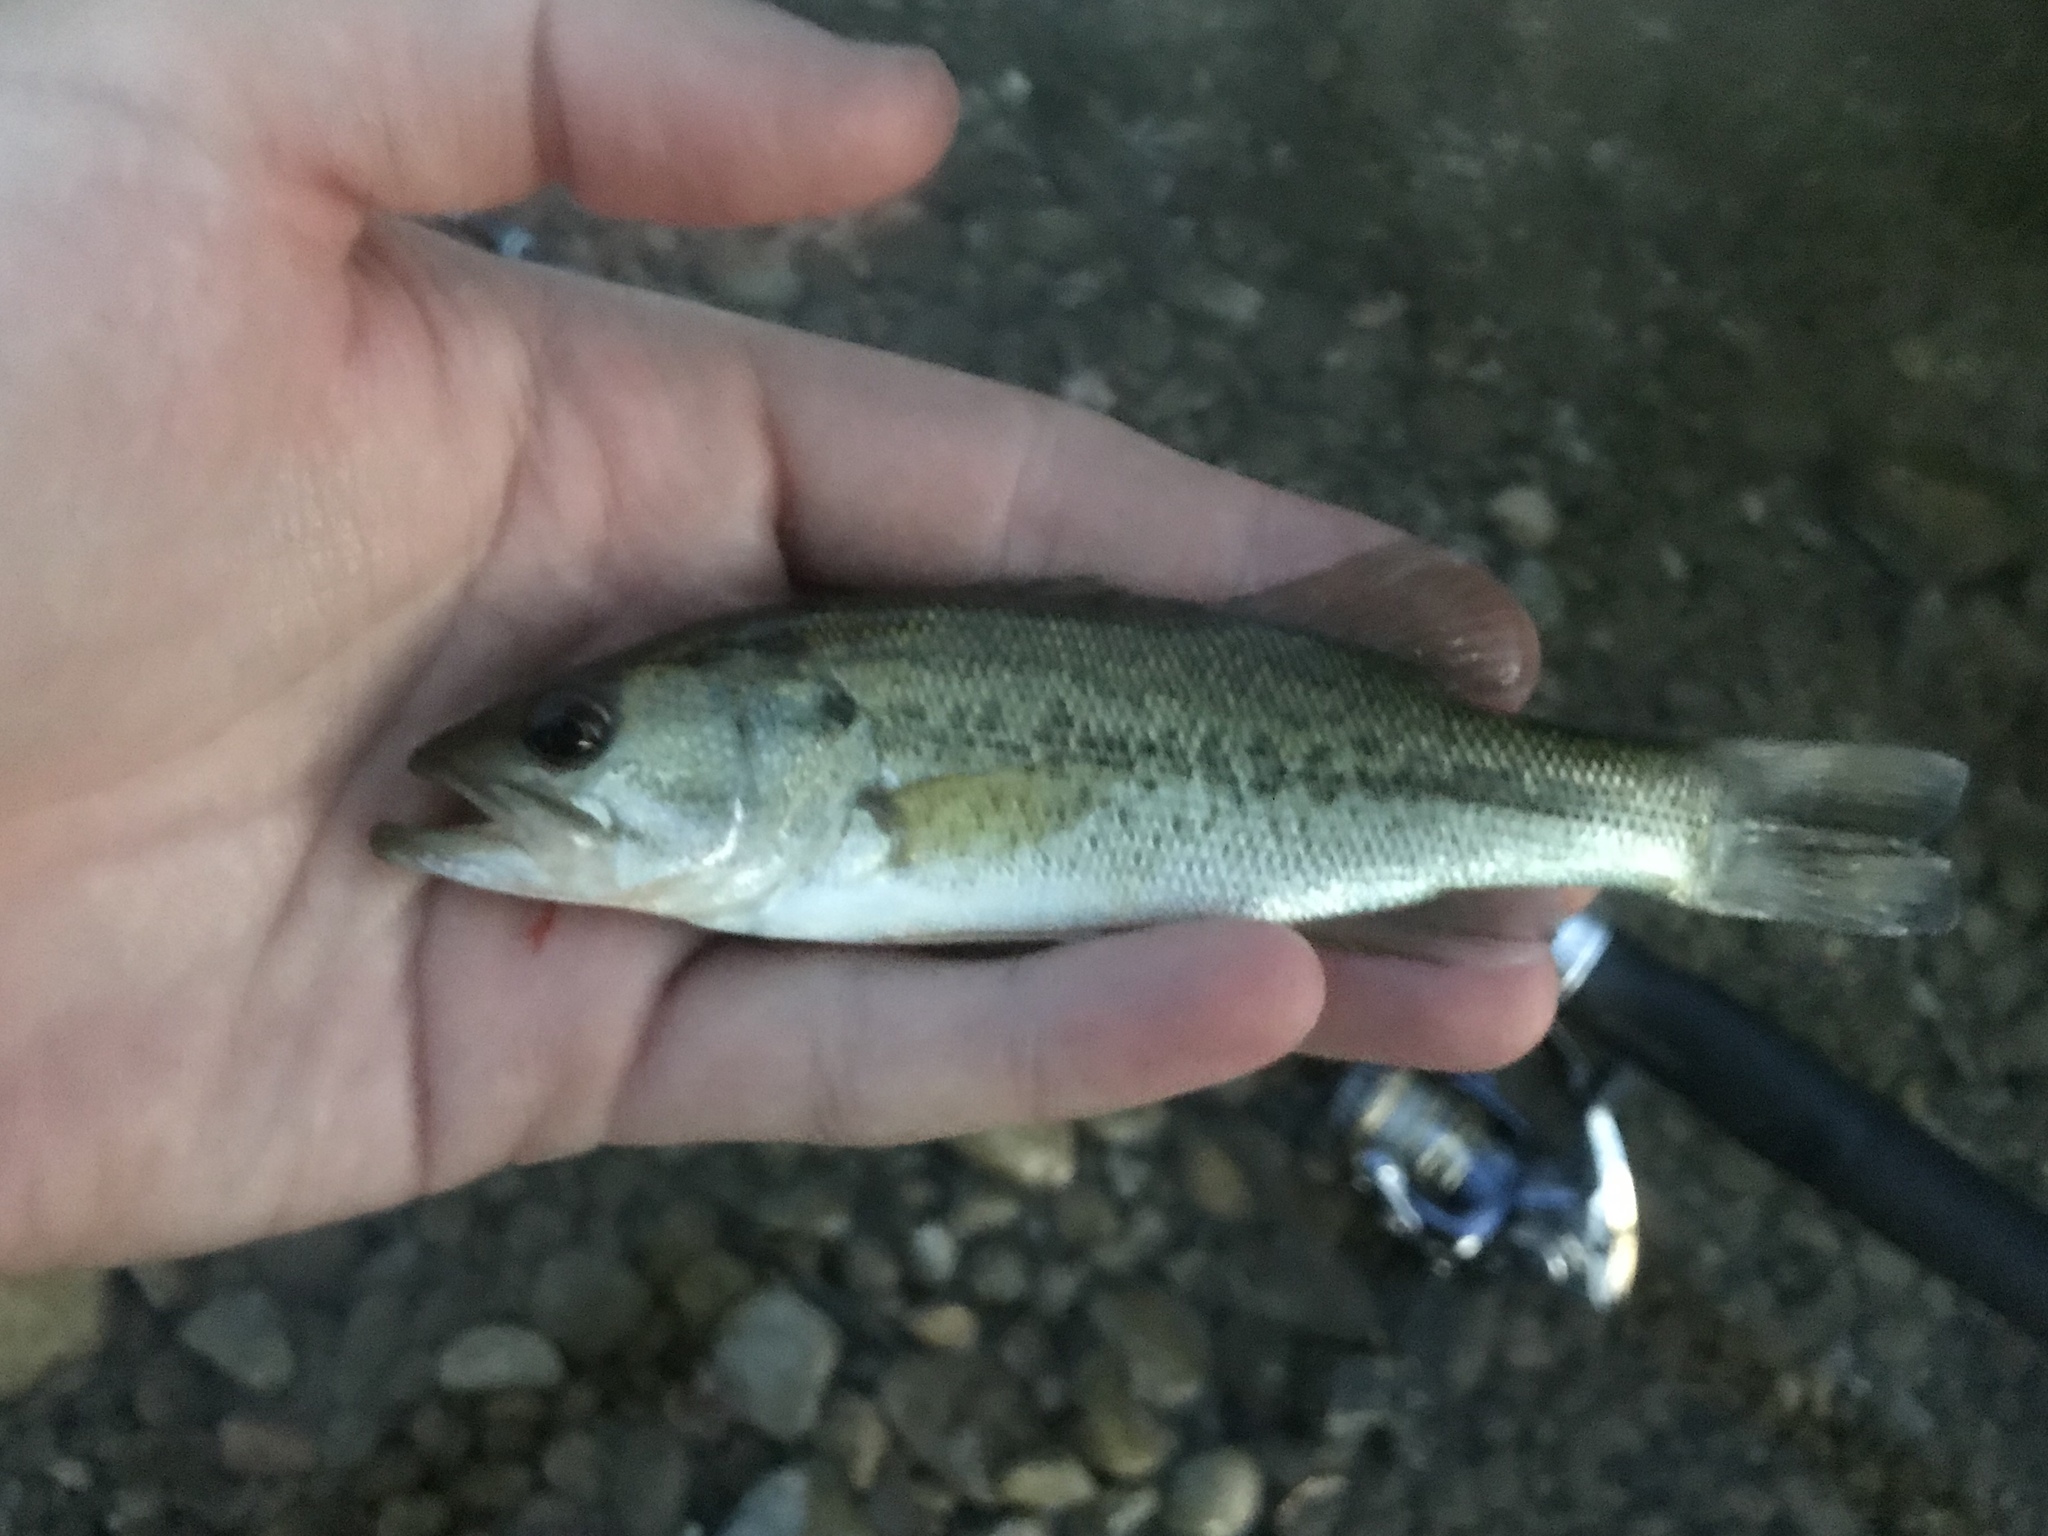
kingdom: Animalia
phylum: Chordata
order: Perciformes
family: Centrarchidae
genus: Micropterus
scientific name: Micropterus
